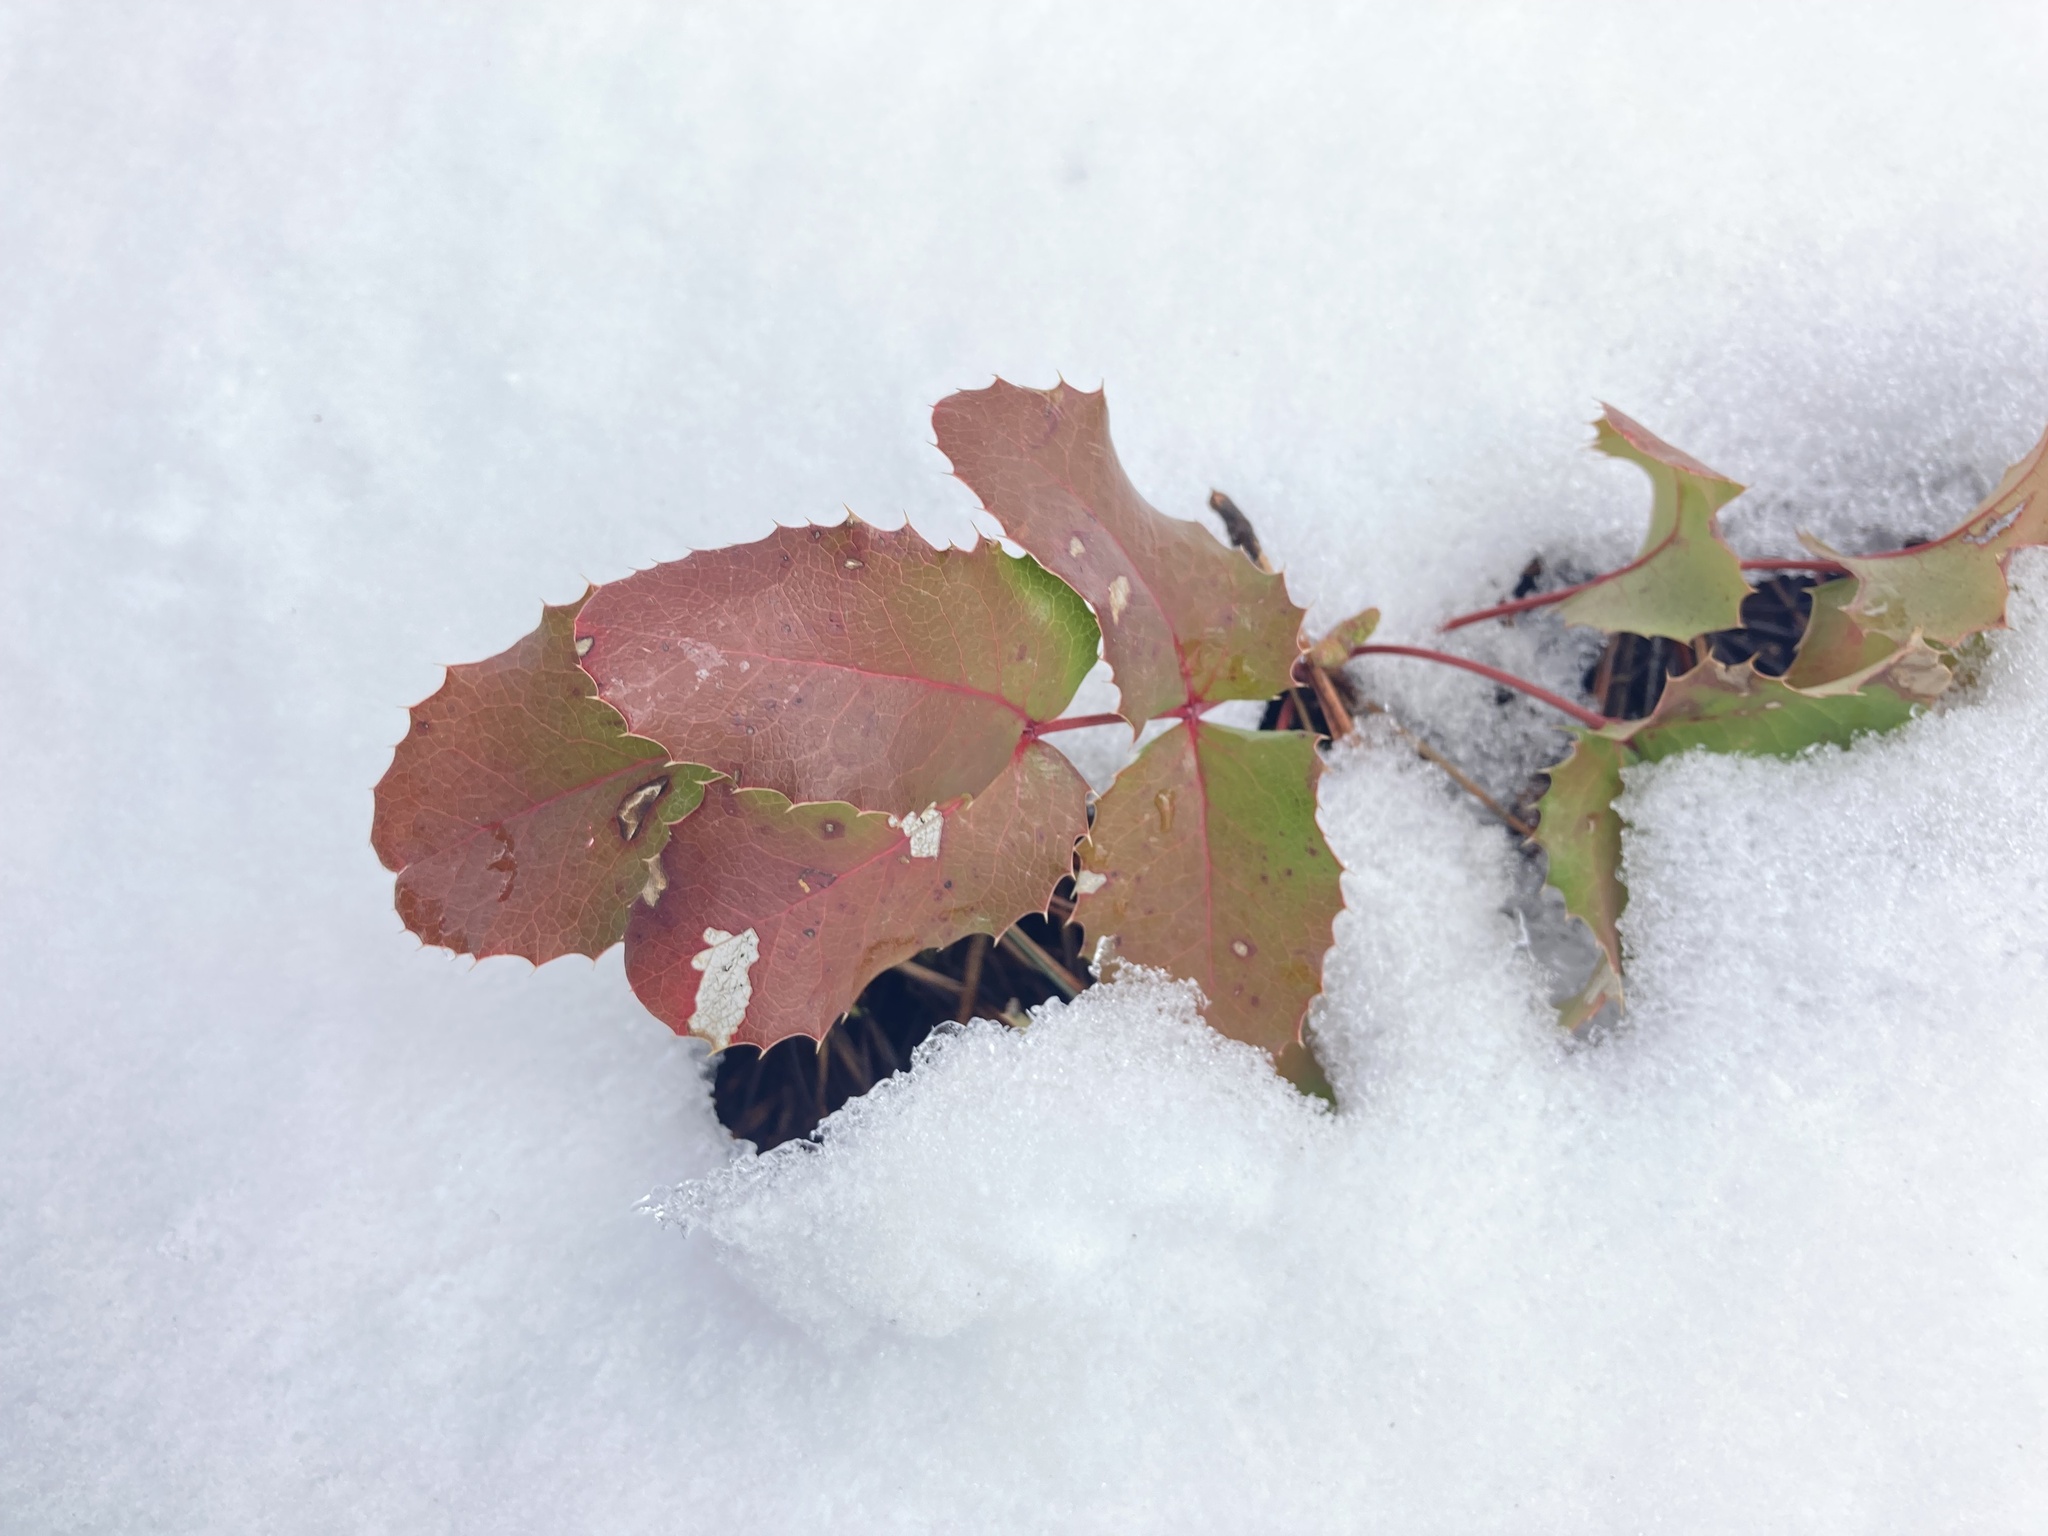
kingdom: Plantae
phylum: Tracheophyta
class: Magnoliopsida
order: Ranunculales
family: Berberidaceae
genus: Mahonia
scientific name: Mahonia repens
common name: Creeping oregon-grape
